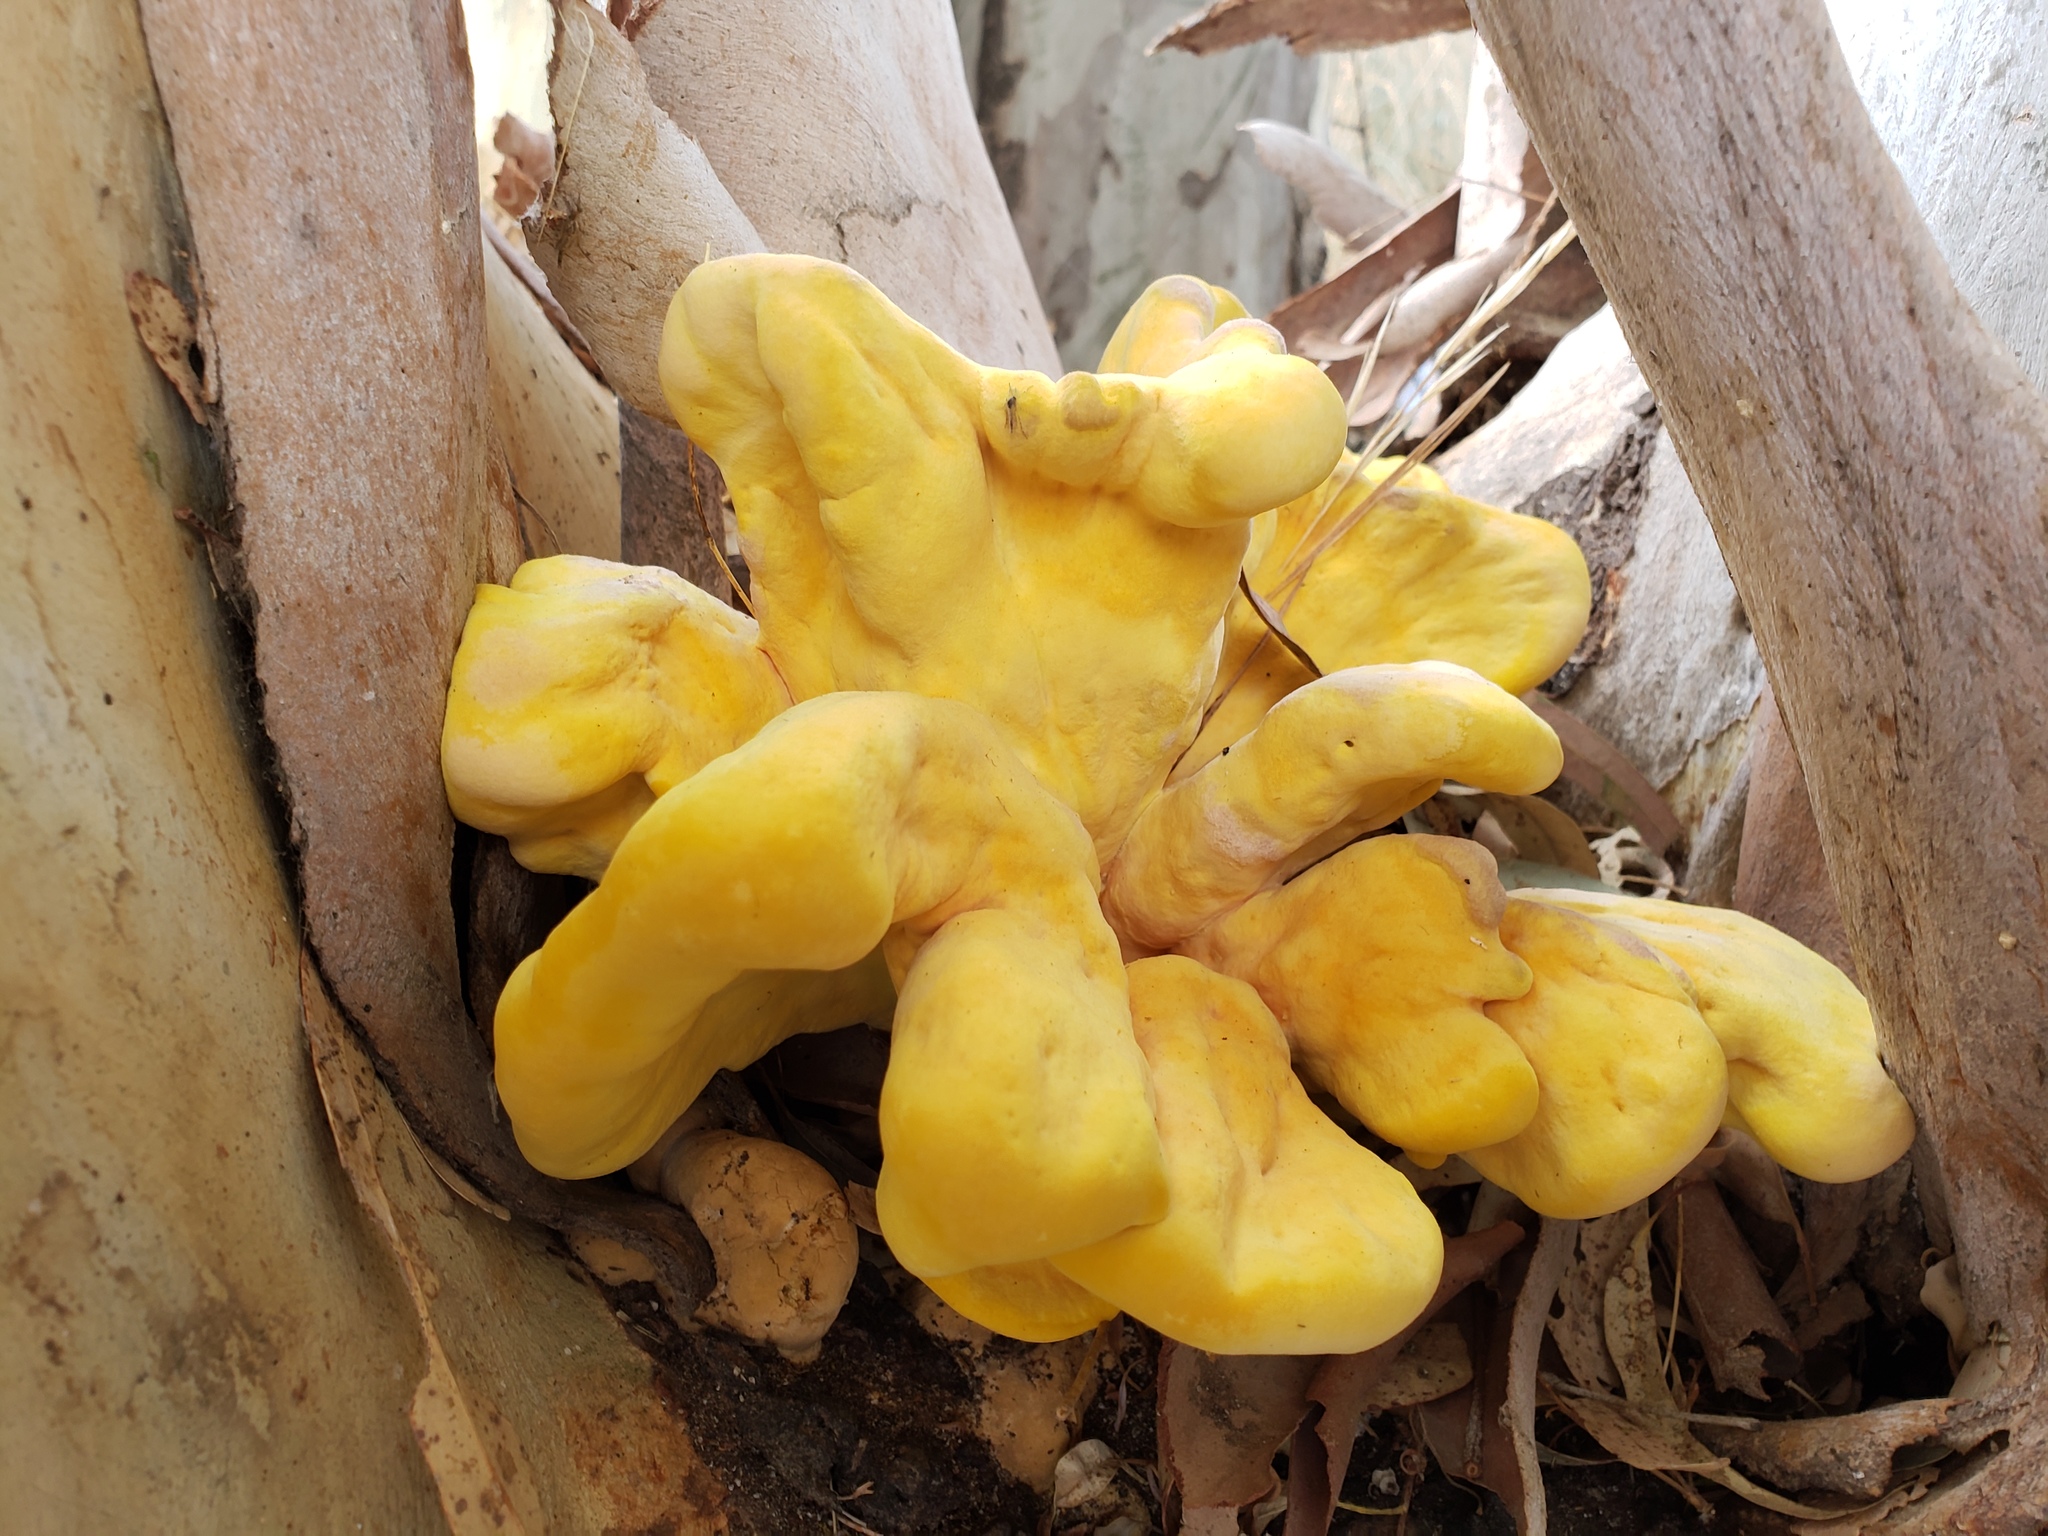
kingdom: Fungi
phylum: Basidiomycota
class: Agaricomycetes
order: Polyporales
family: Laetiporaceae
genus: Laetiporus
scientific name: Laetiporus gilbertsonii
